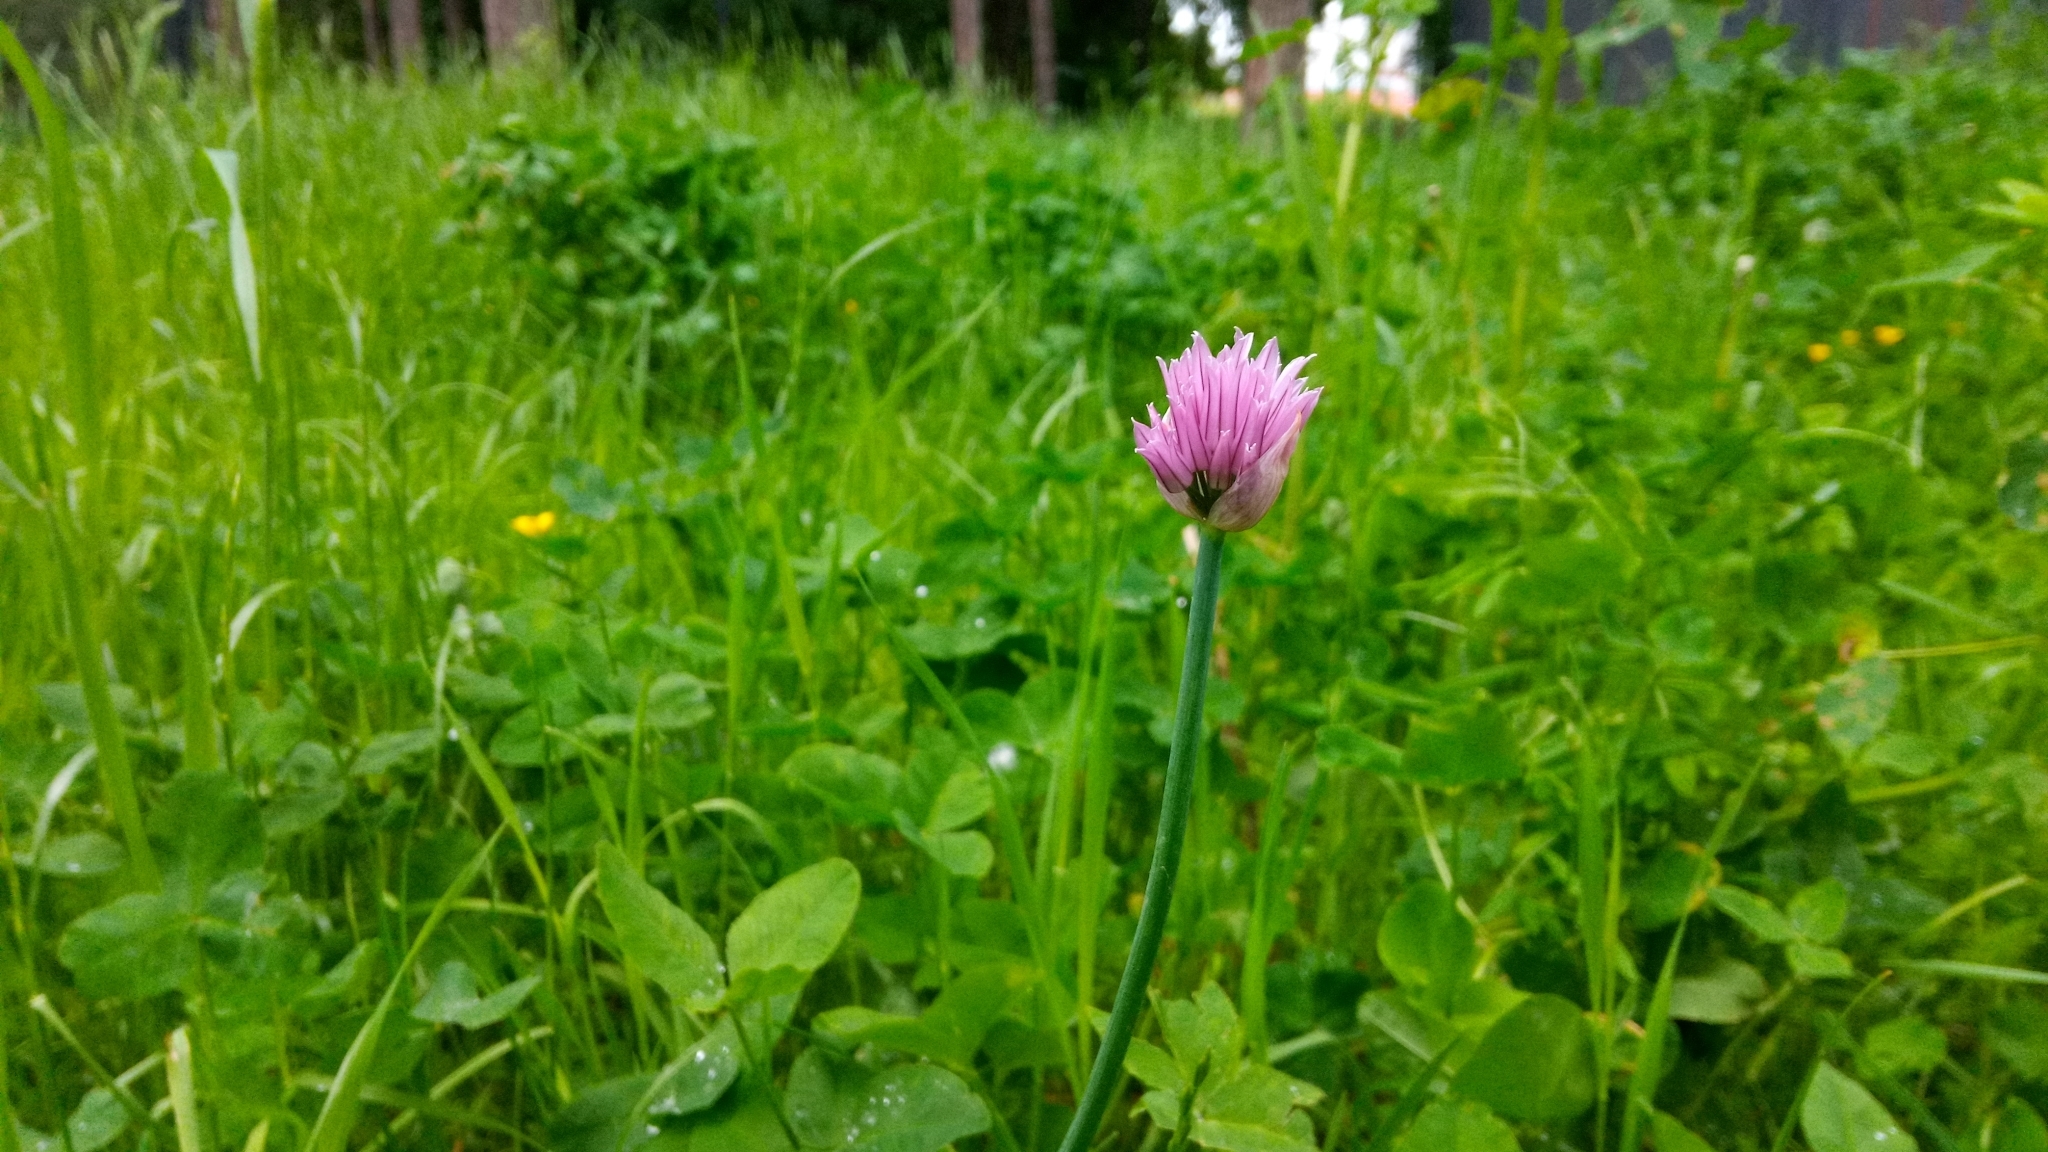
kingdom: Plantae
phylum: Tracheophyta
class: Liliopsida
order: Asparagales
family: Amaryllidaceae
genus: Allium
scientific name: Allium schoenoprasum
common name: Chives
